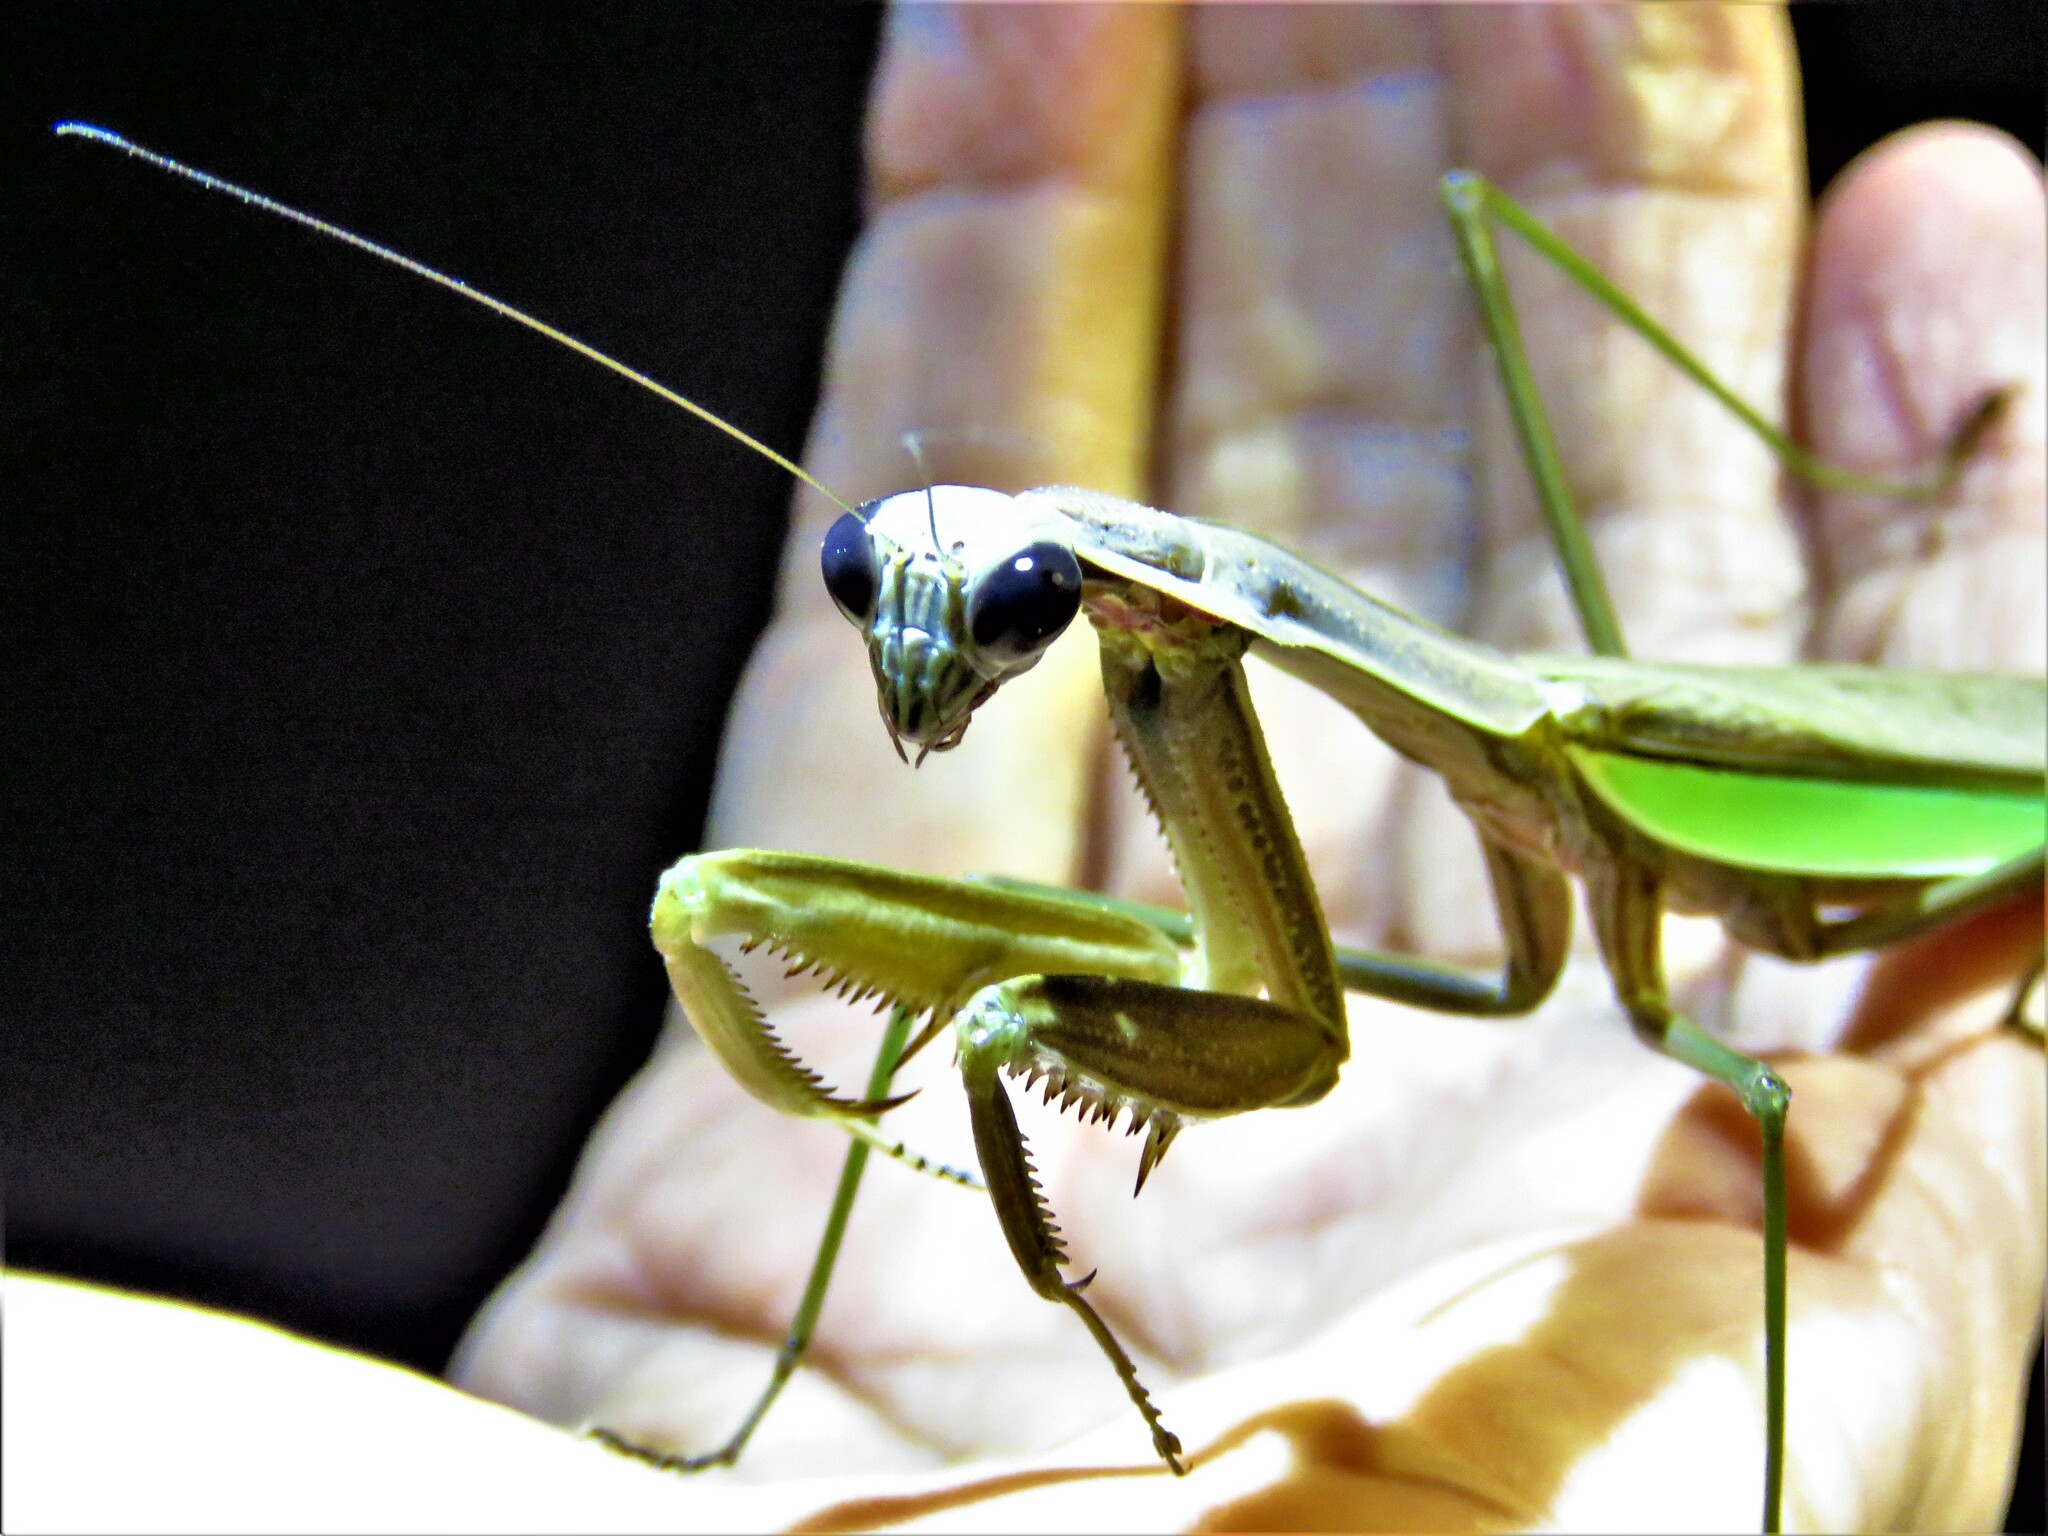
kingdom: Animalia
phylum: Arthropoda
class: Insecta
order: Mantodea
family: Mantidae
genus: Tenodera
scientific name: Tenodera sinensis
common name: Chinese mantis
